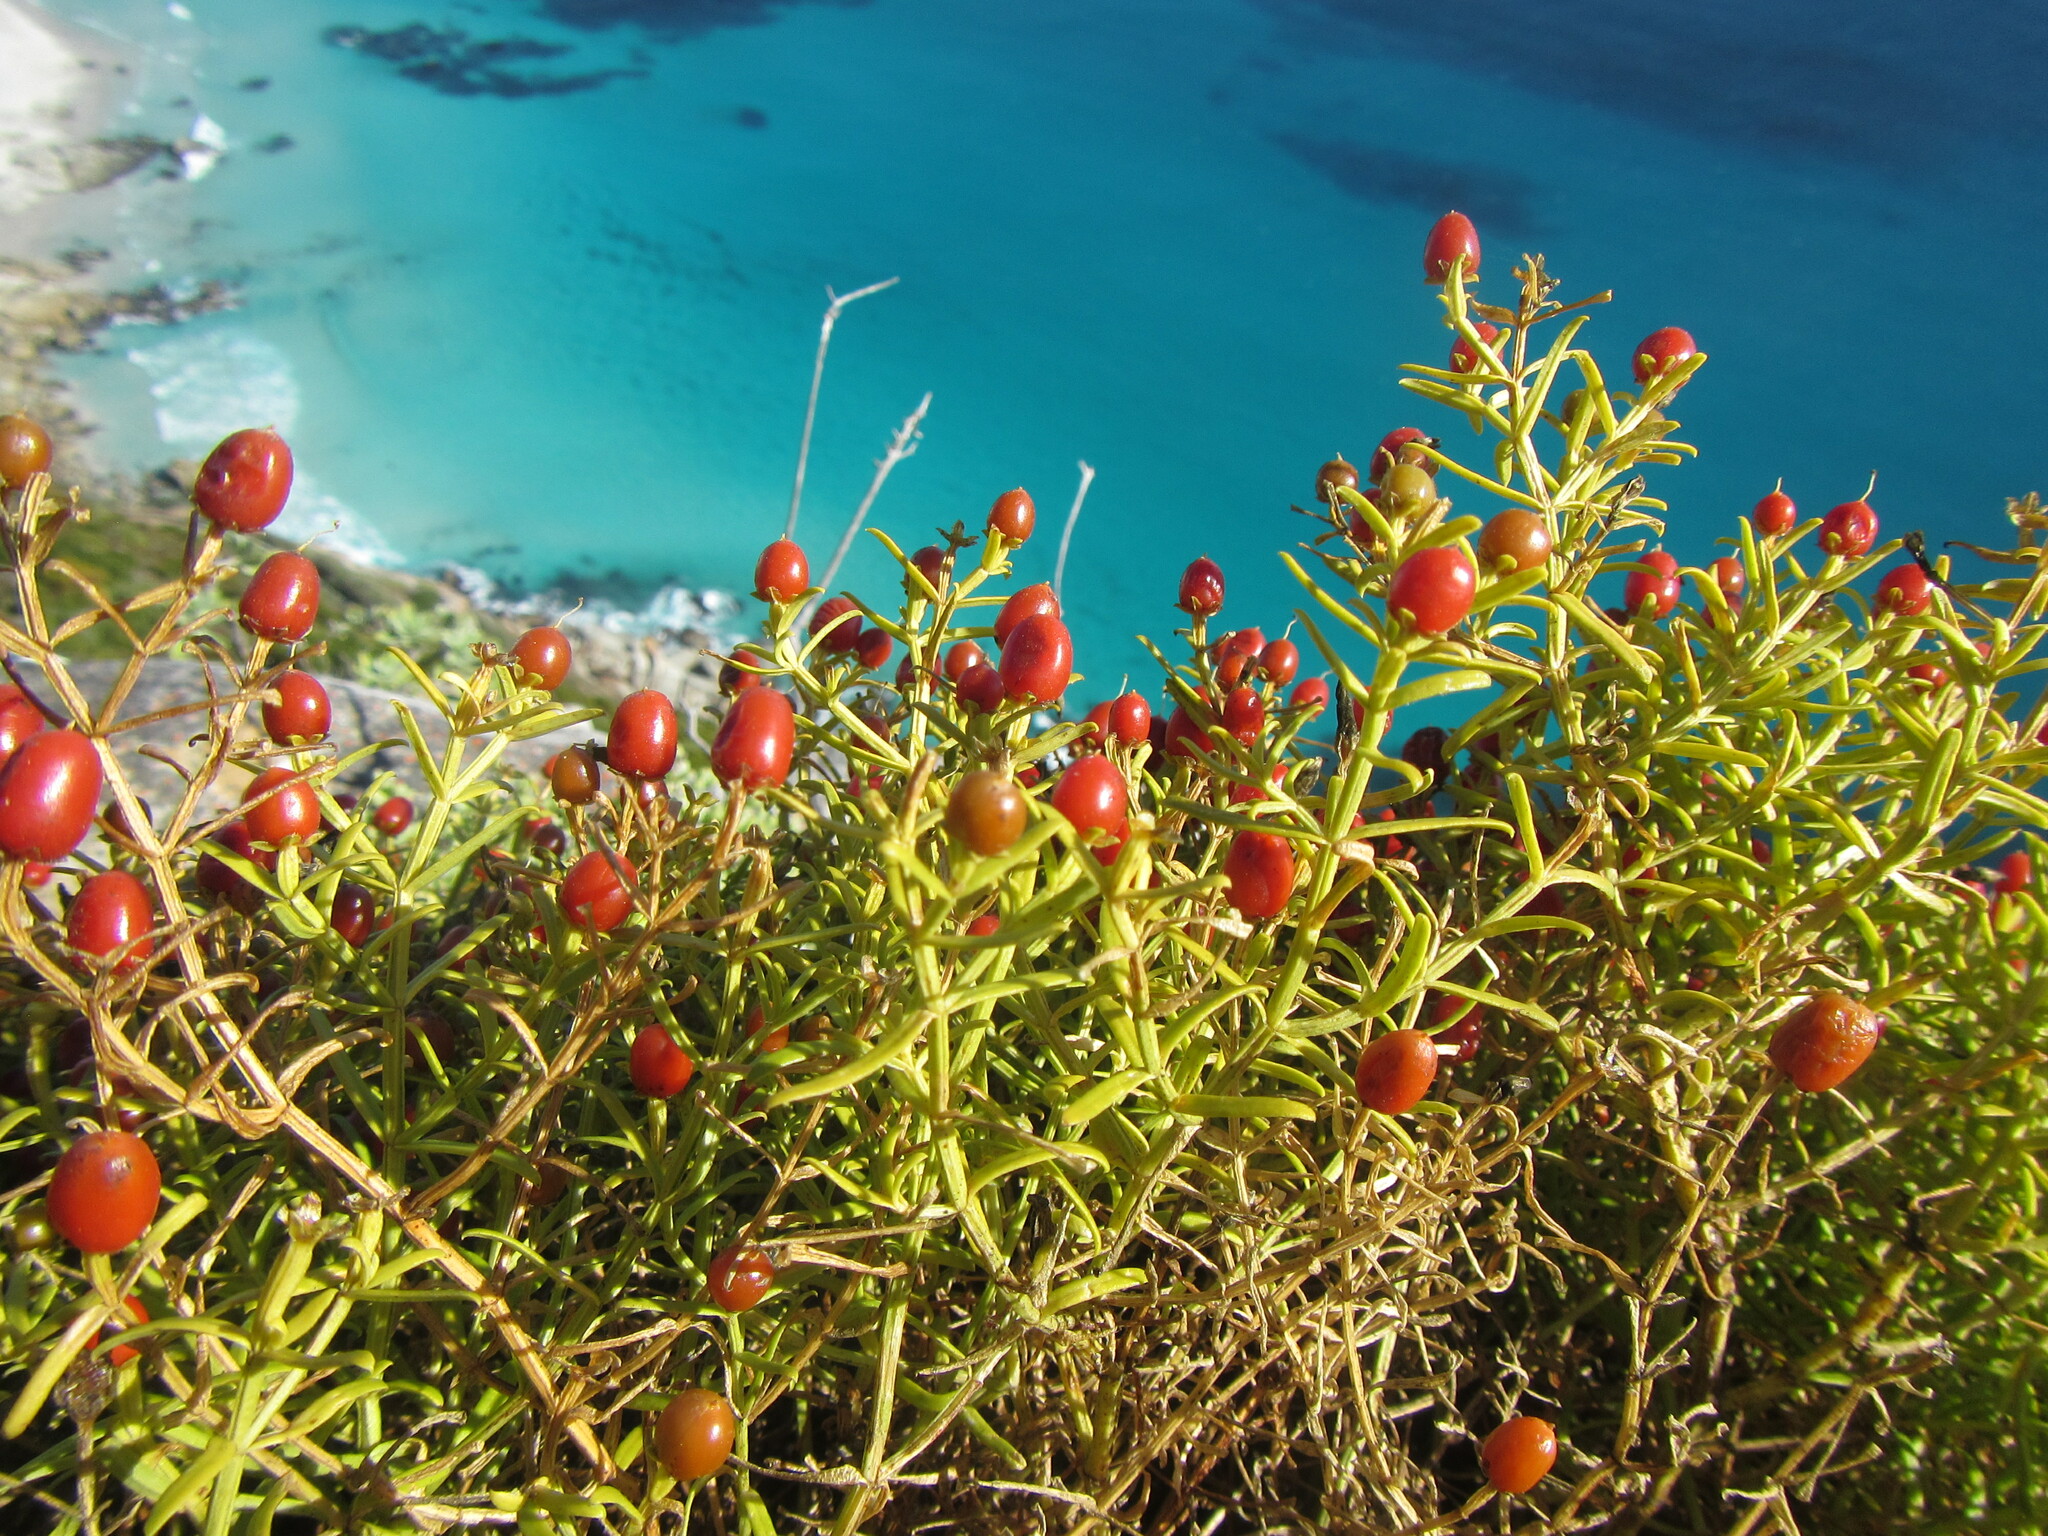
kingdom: Plantae
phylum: Tracheophyta
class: Magnoliopsida
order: Gentianales
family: Gentianaceae
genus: Chironia
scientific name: Chironia baccifera
